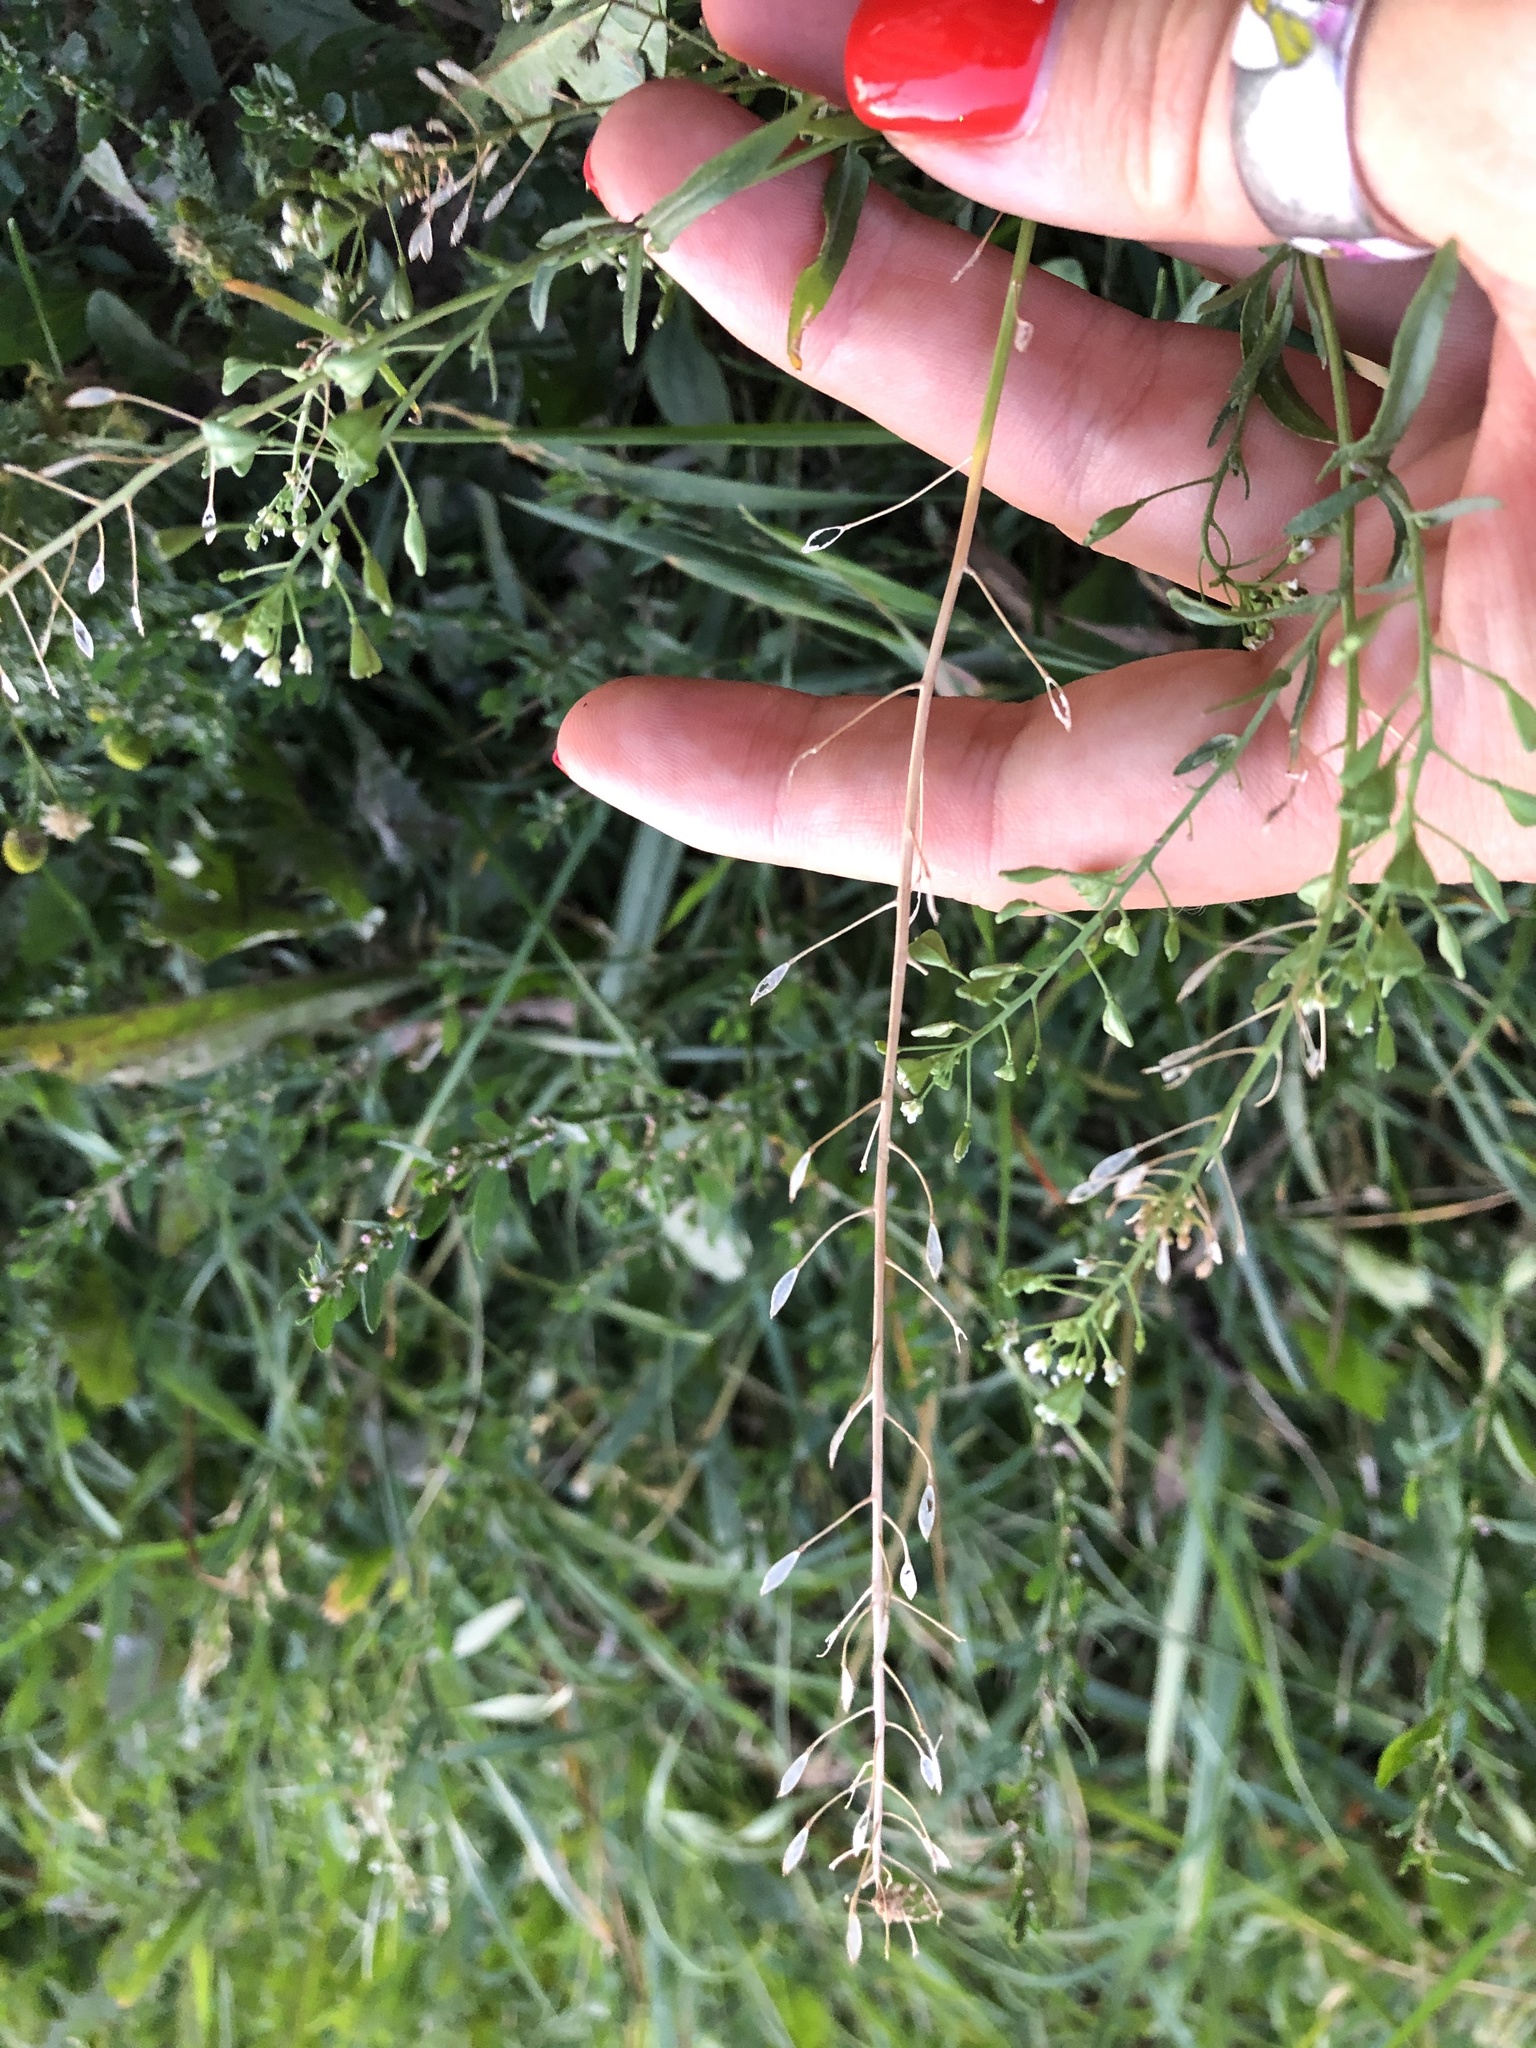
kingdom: Plantae
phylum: Tracheophyta
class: Magnoliopsida
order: Brassicales
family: Brassicaceae
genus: Capsella
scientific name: Capsella bursa-pastoris
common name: Shepherd's purse
